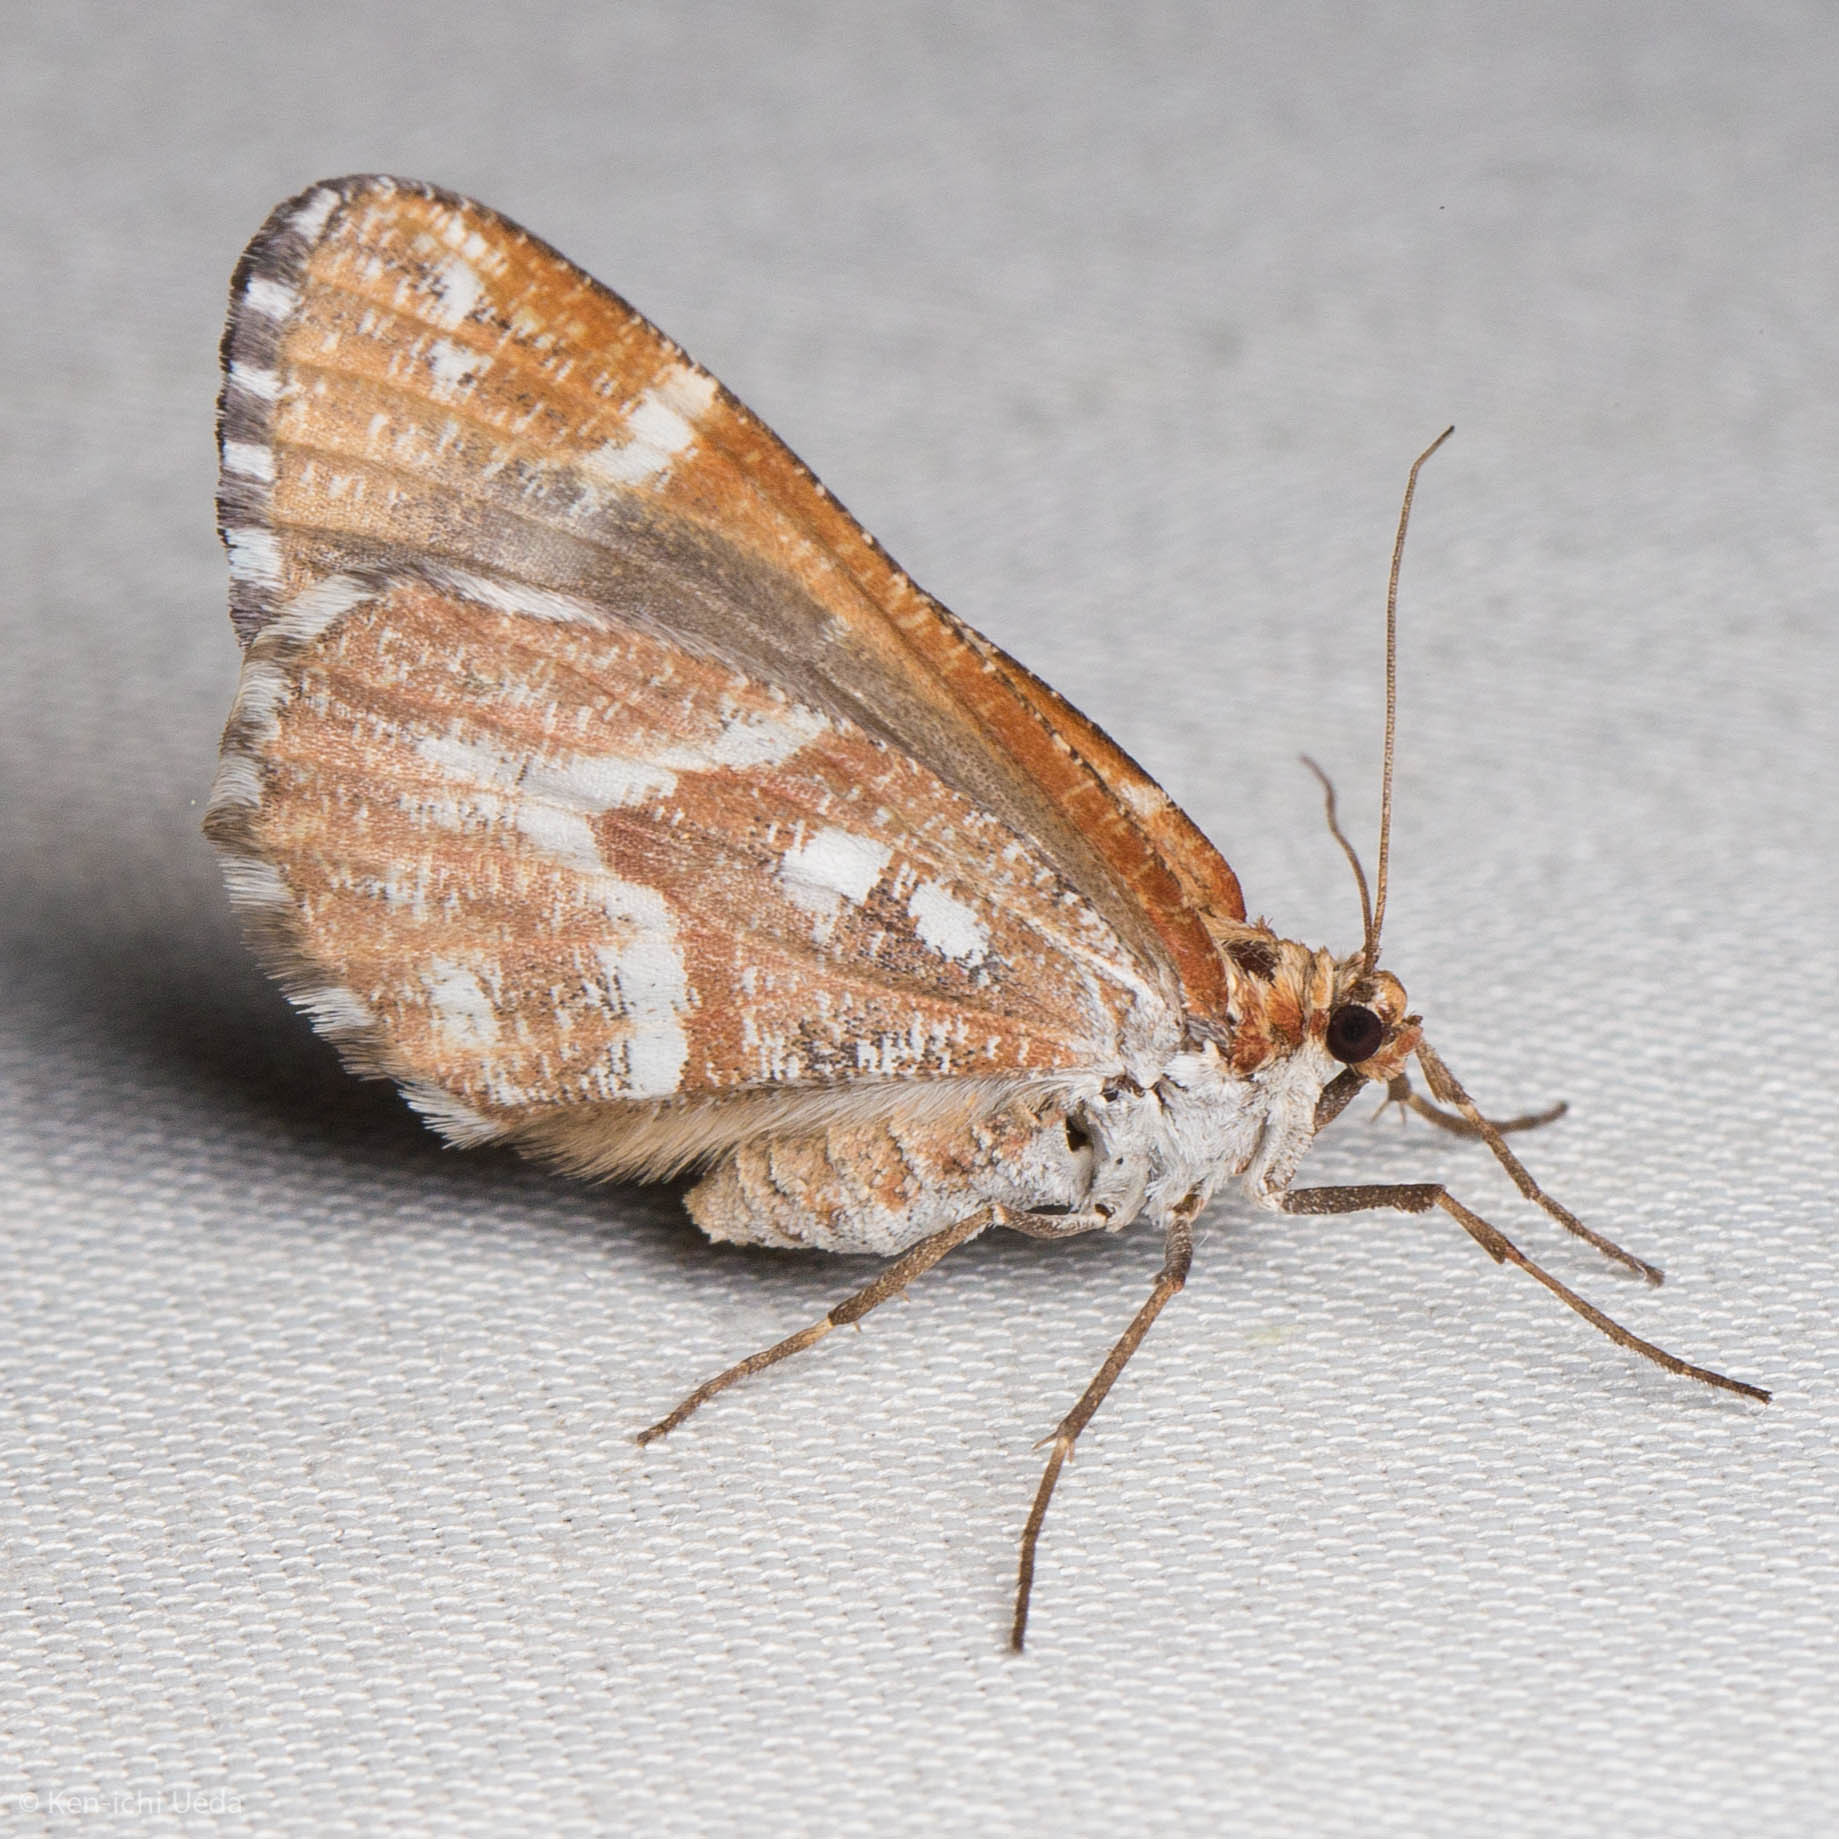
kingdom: Animalia
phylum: Arthropoda
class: Insecta
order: Lepidoptera
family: Geometridae
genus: Stamnodes
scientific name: Stamnodes marmorata
